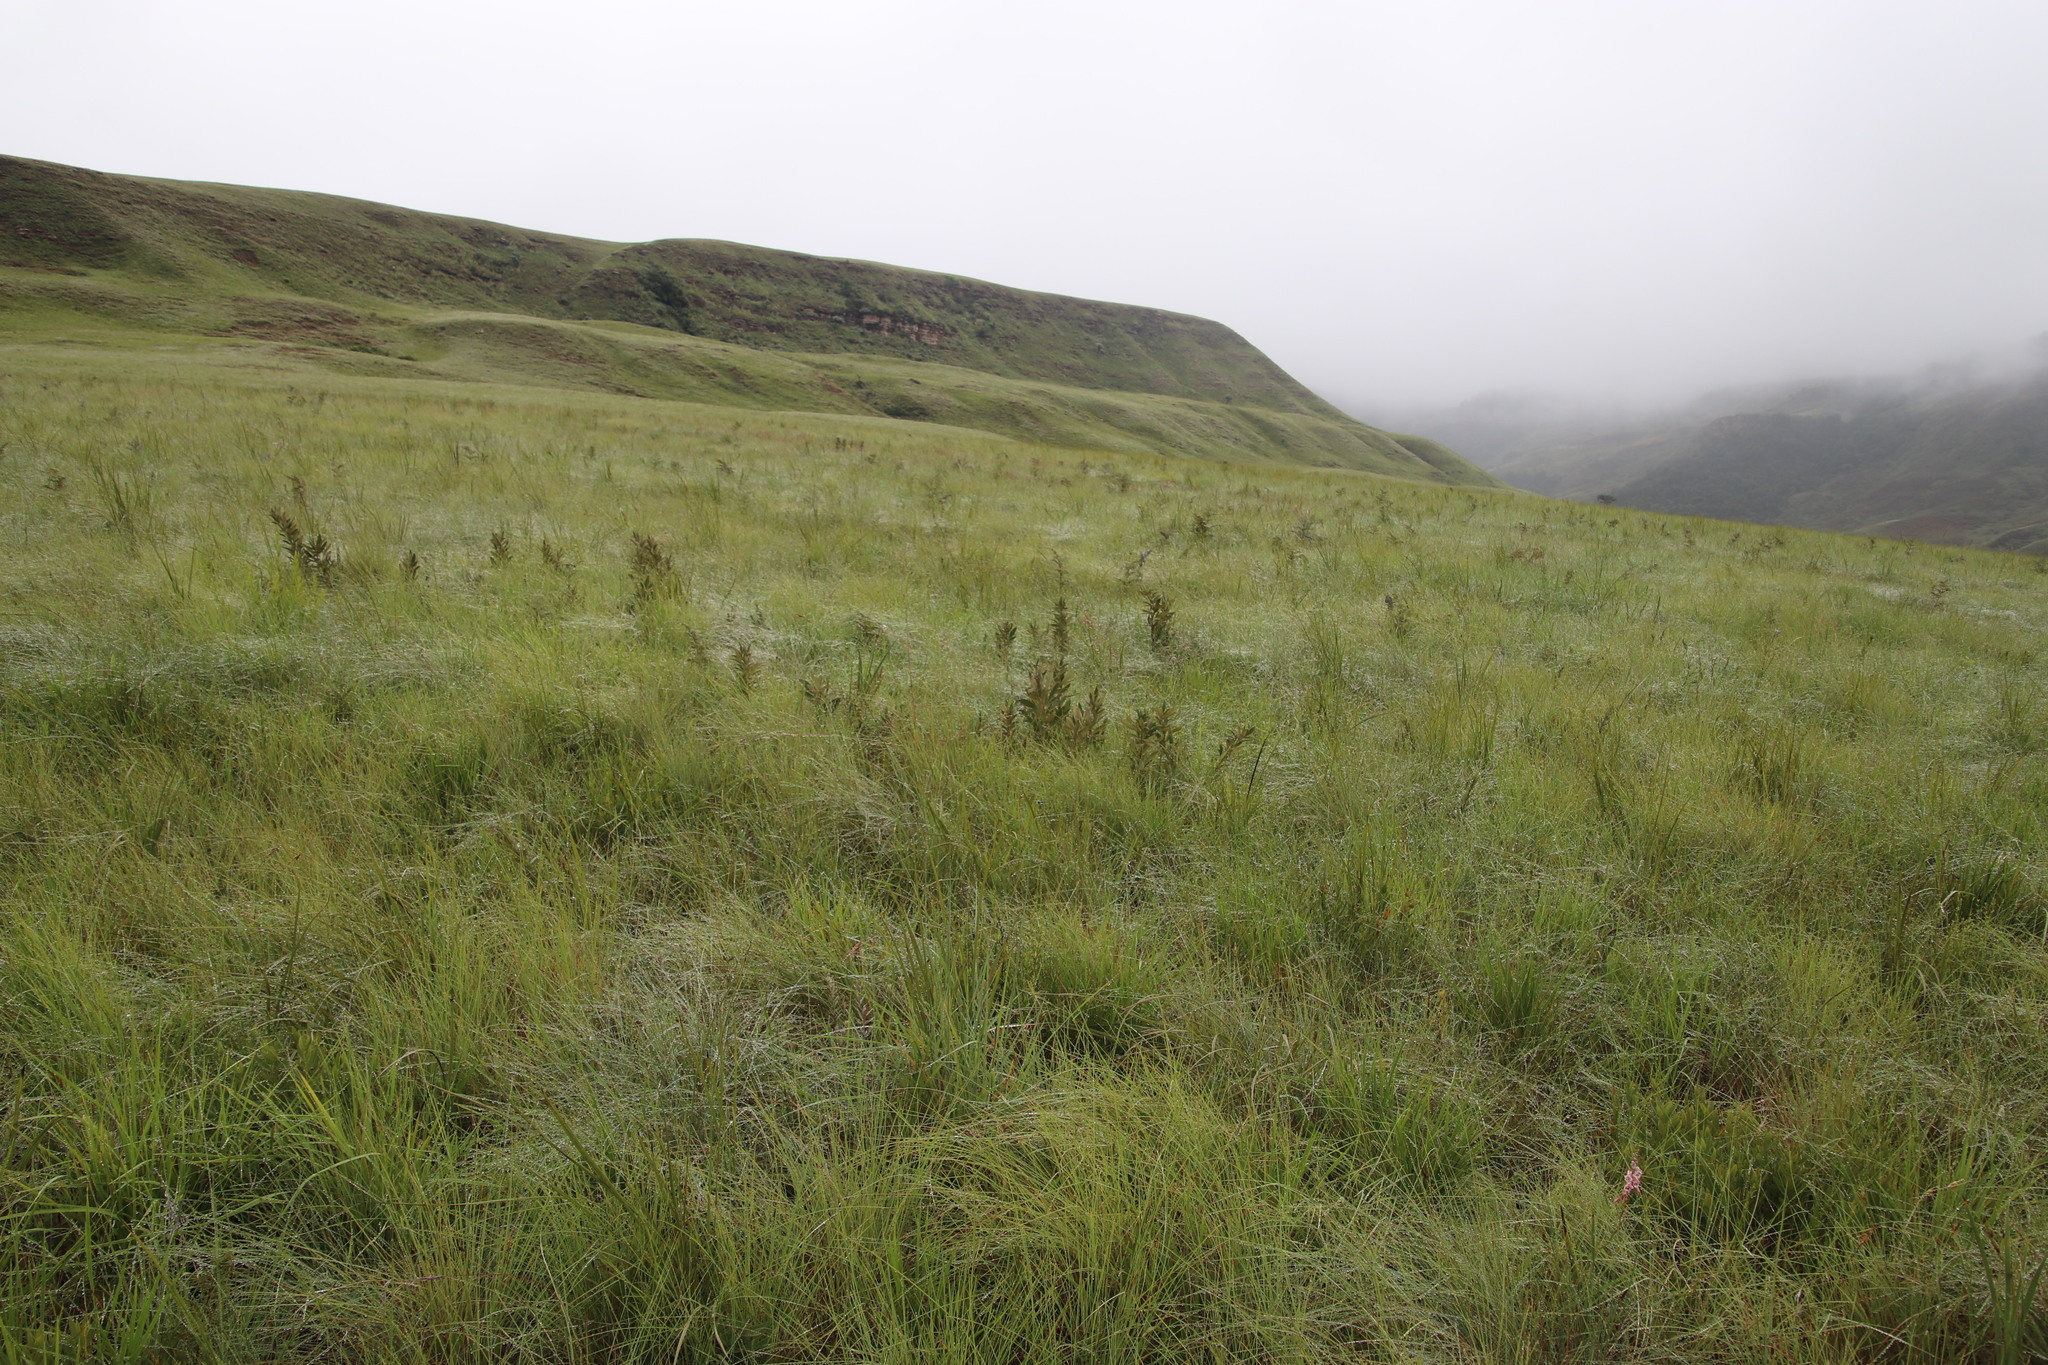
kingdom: Plantae
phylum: Tracheophyta
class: Magnoliopsida
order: Sapindales
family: Anacardiaceae
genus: Searsia
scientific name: Searsia discolor
